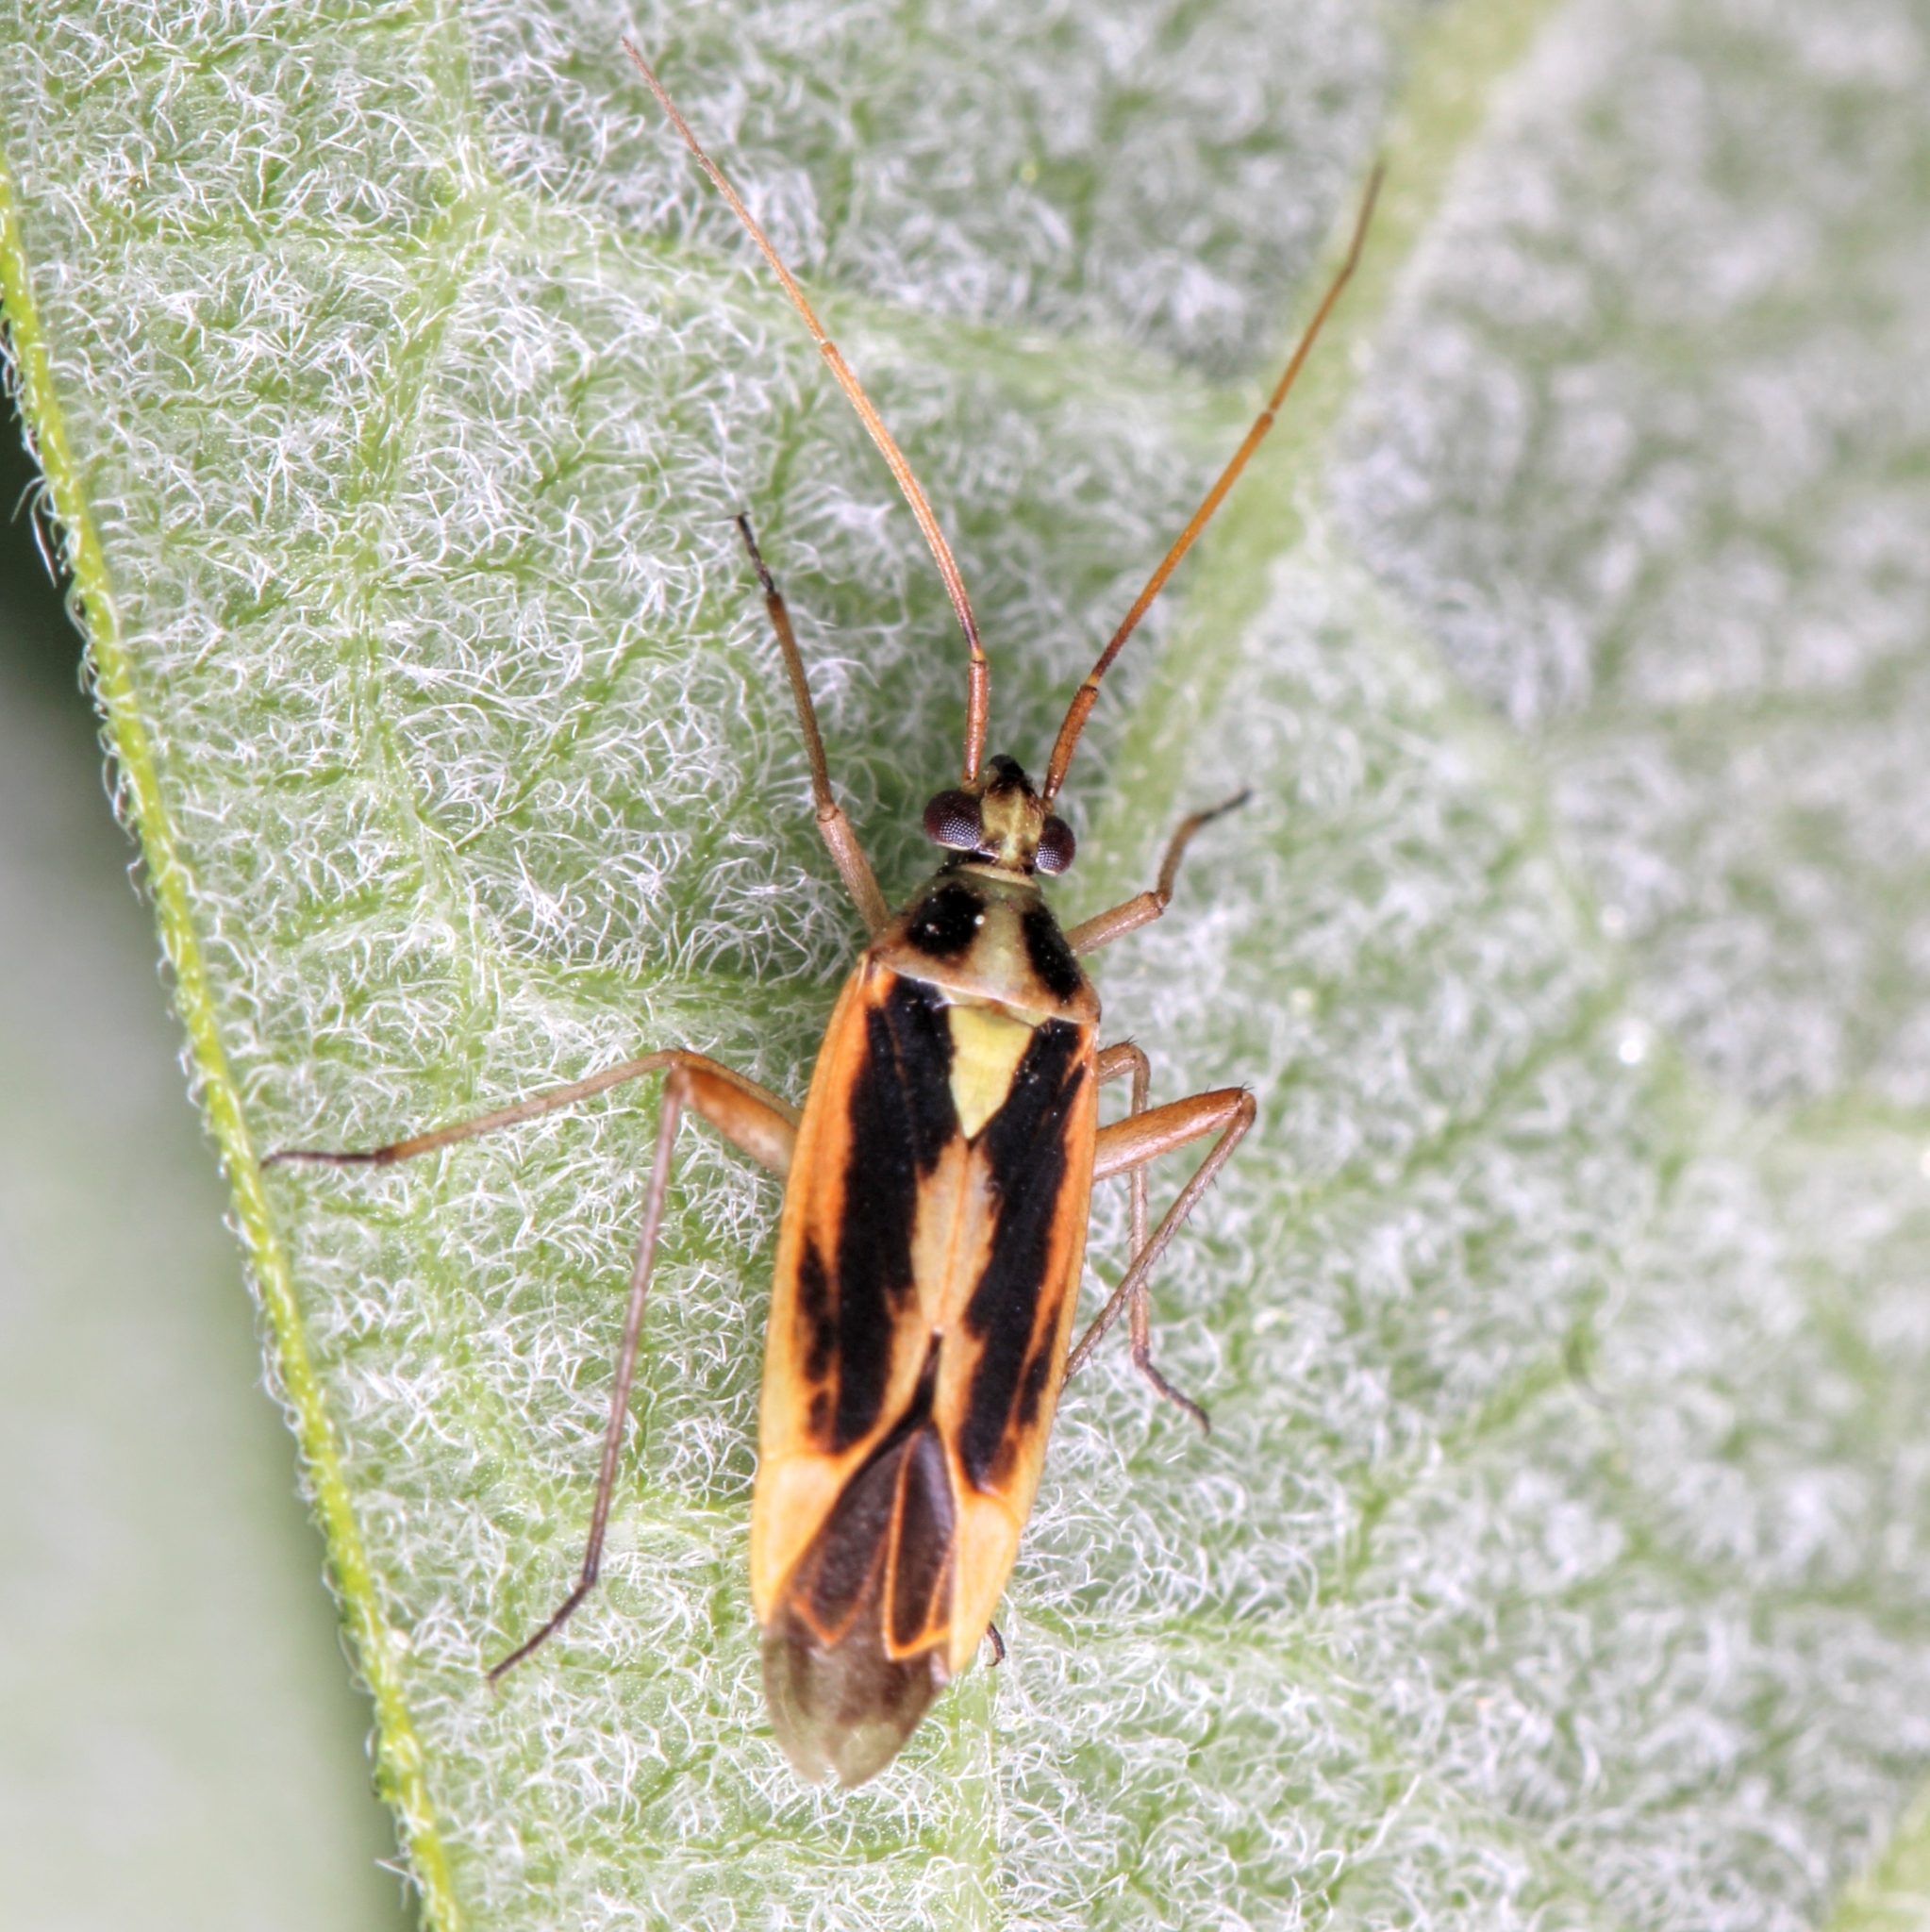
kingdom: Animalia
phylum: Arthropoda
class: Insecta
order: Hemiptera
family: Miridae
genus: Stenotus
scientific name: Stenotus binotatus
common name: Plant bug
